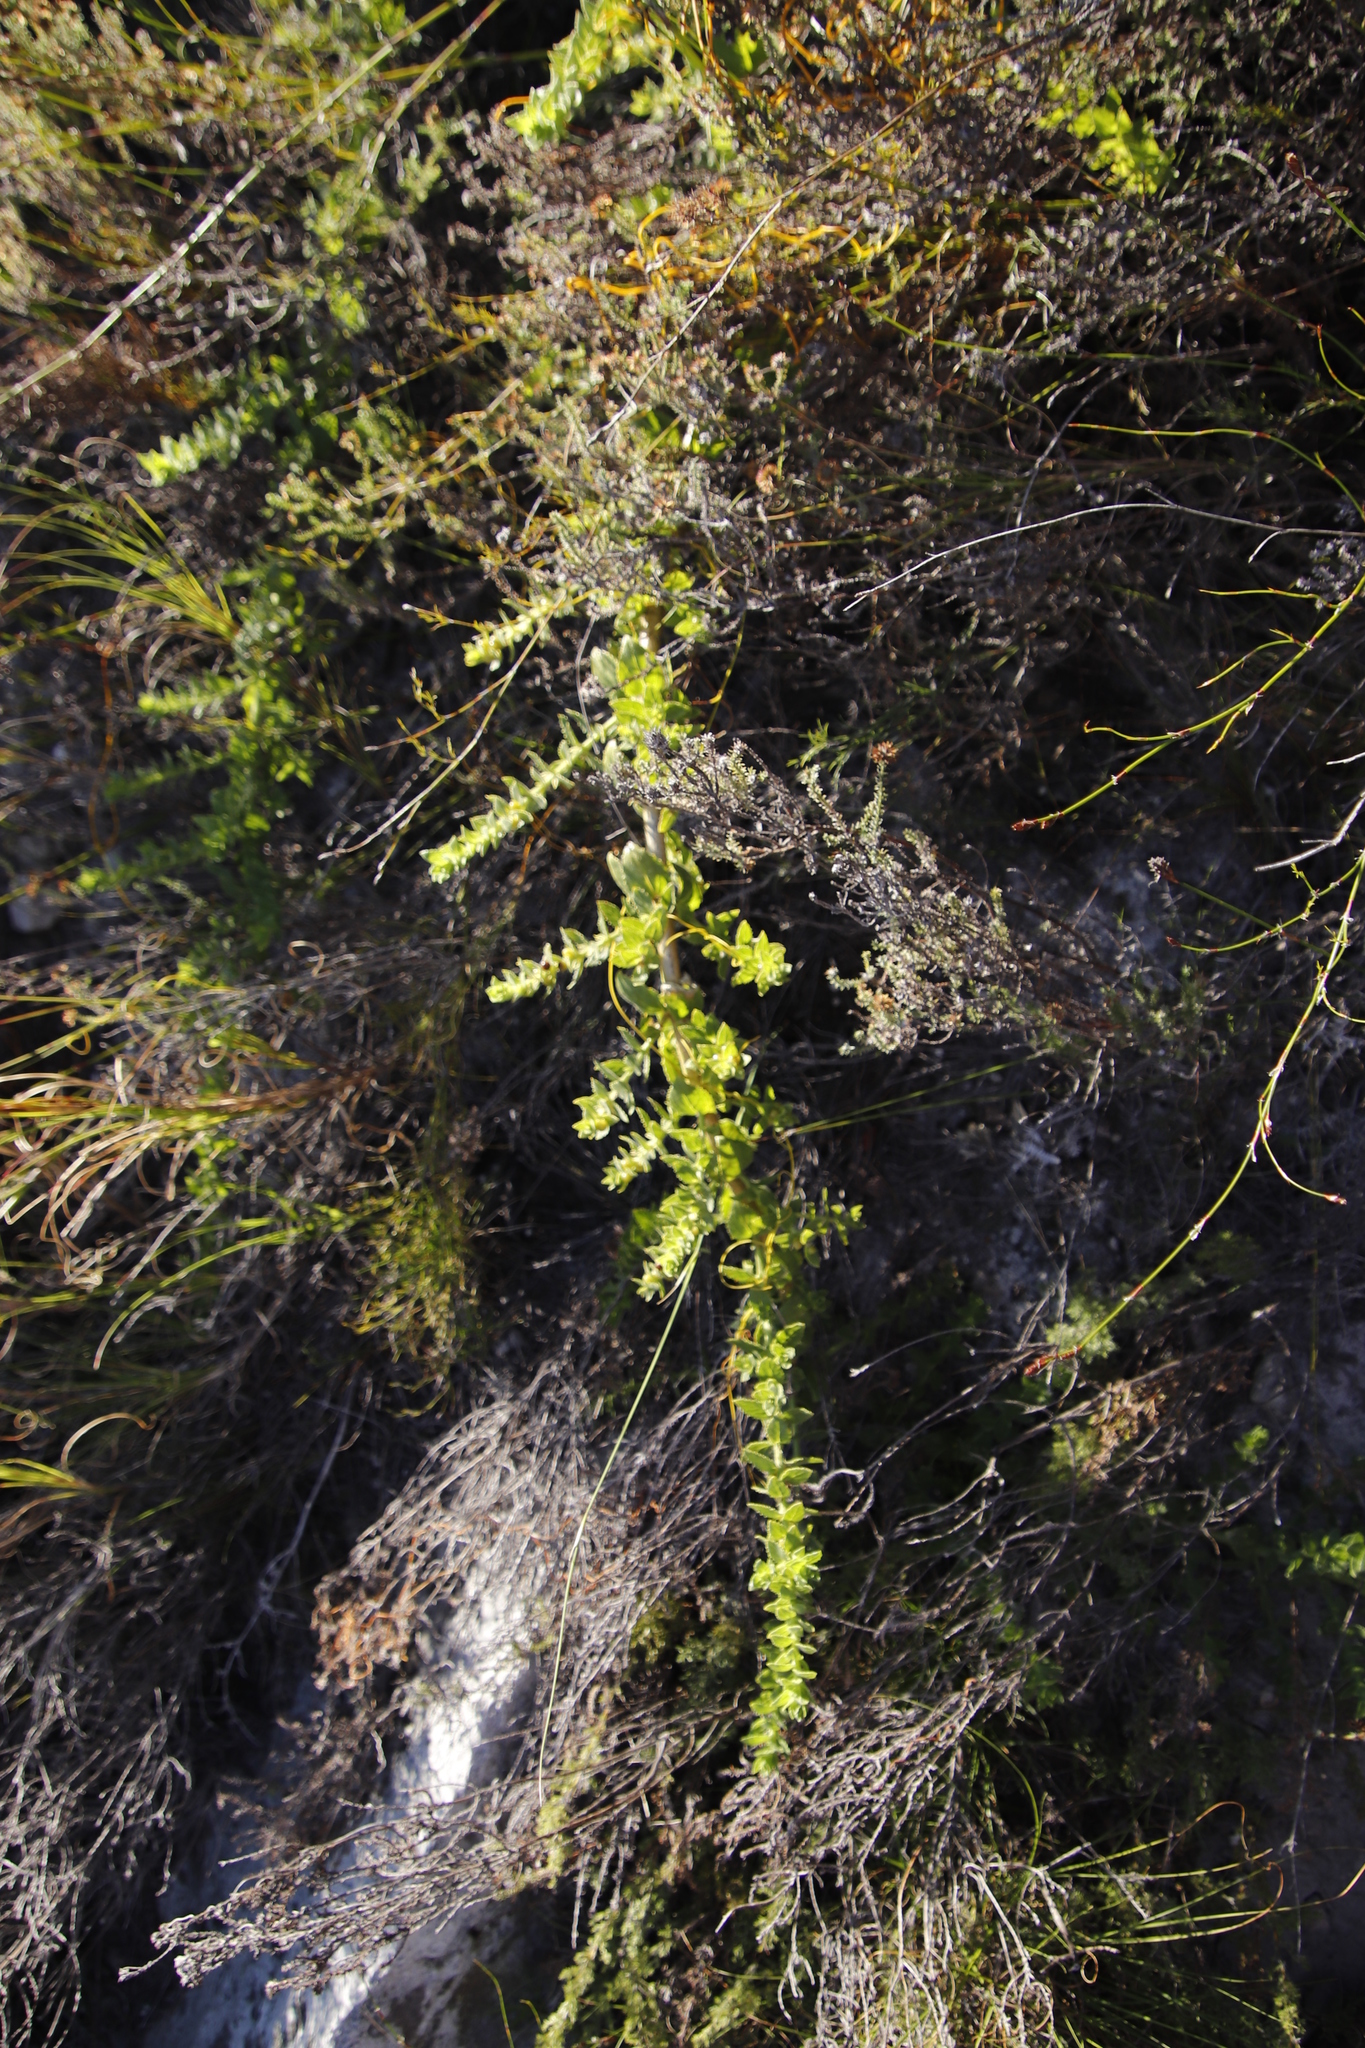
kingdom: Plantae
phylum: Tracheophyta
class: Magnoliopsida
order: Lamiales
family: Scrophulariaceae
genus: Oftia
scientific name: Oftia africana
